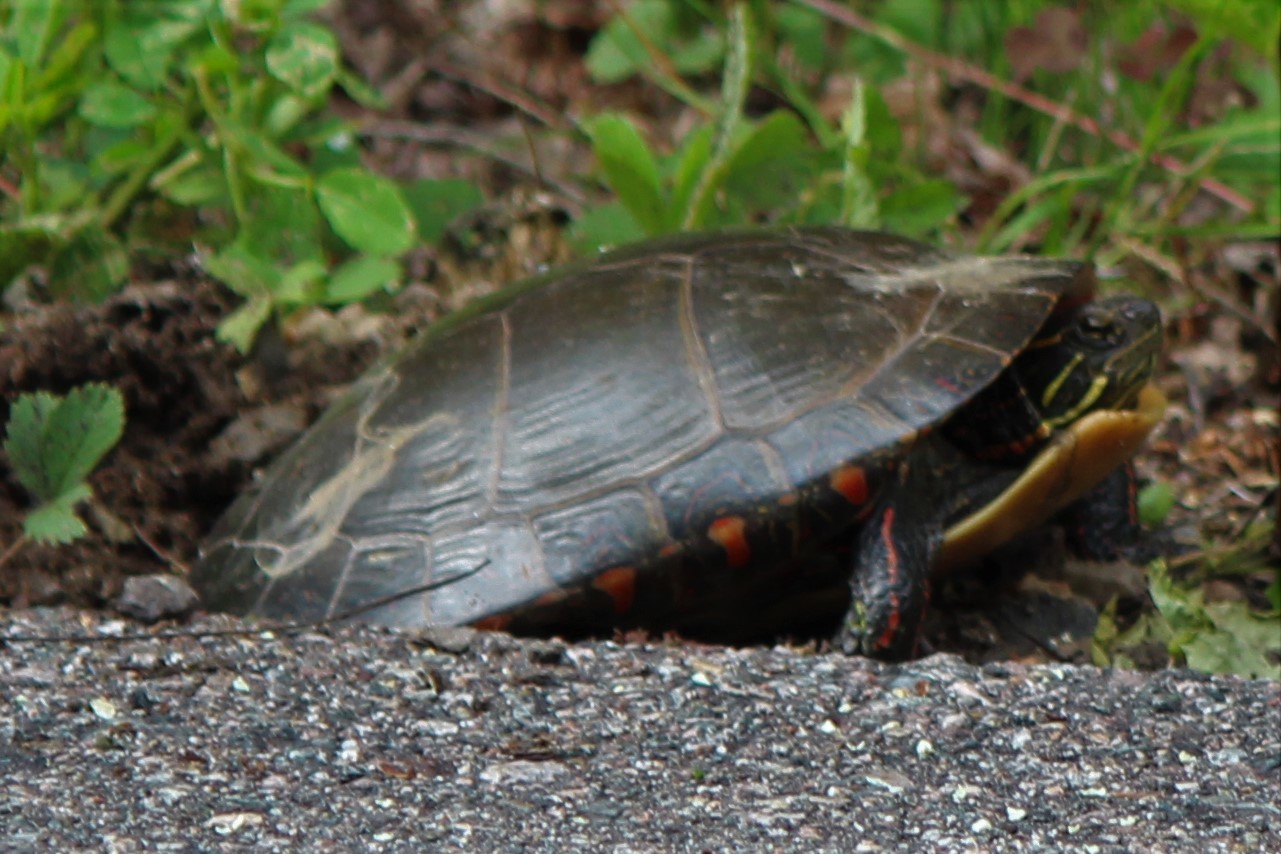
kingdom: Animalia
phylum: Chordata
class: Testudines
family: Emydidae
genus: Chrysemys
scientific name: Chrysemys picta
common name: Painted turtle
